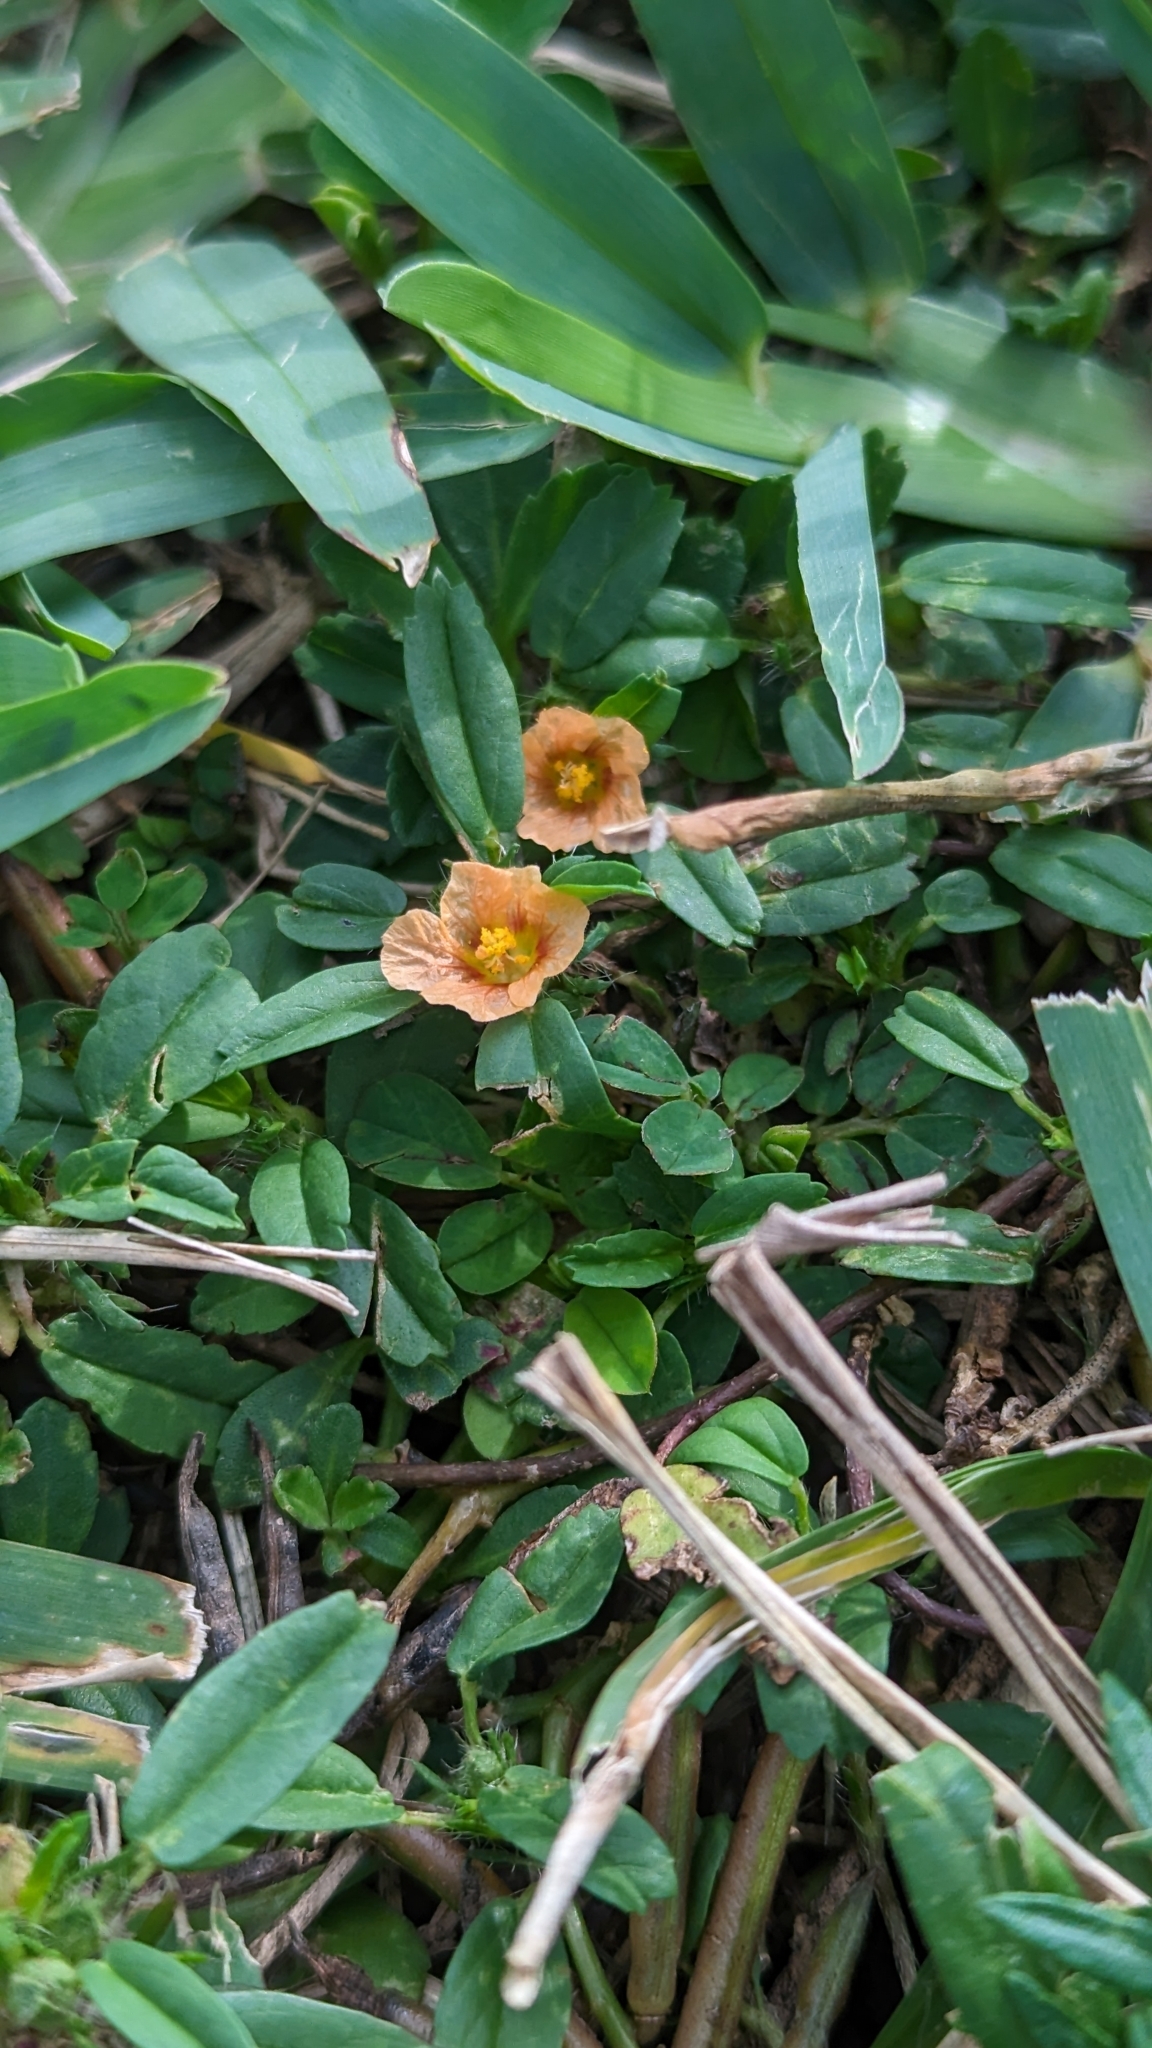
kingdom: Plantae
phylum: Tracheophyta
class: Magnoliopsida
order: Malvales
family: Malvaceae
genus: Sida
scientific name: Sida ciliaris
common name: Bracted fanpetals
